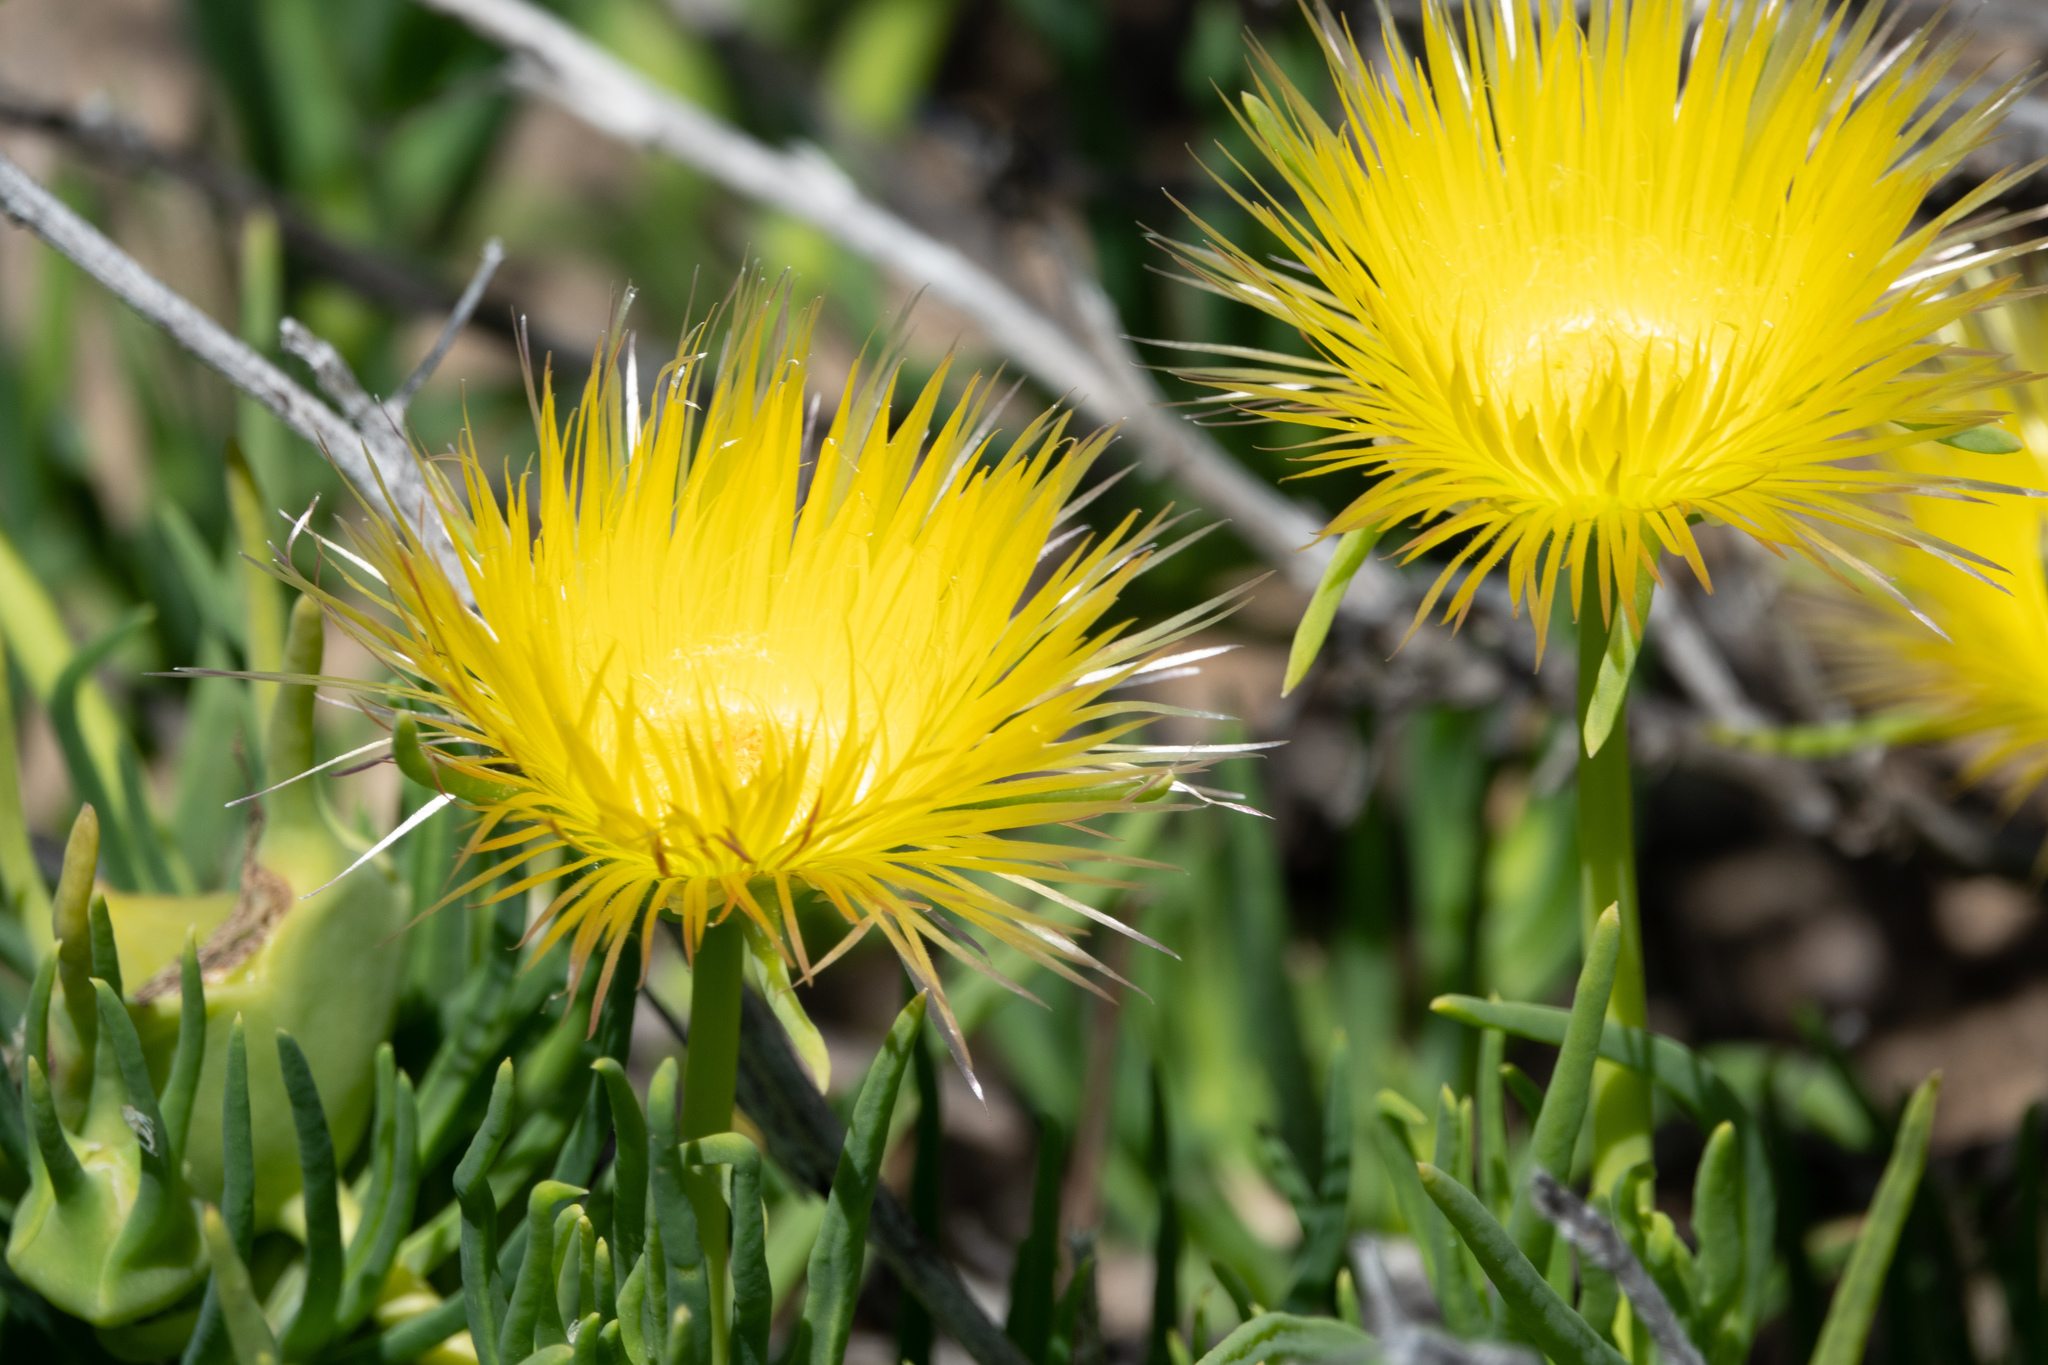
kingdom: Plantae
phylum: Tracheophyta
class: Magnoliopsida
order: Caryophyllales
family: Aizoaceae
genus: Conicosia
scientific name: Conicosia pugioniformis
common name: Narrow-leaved iceplant
